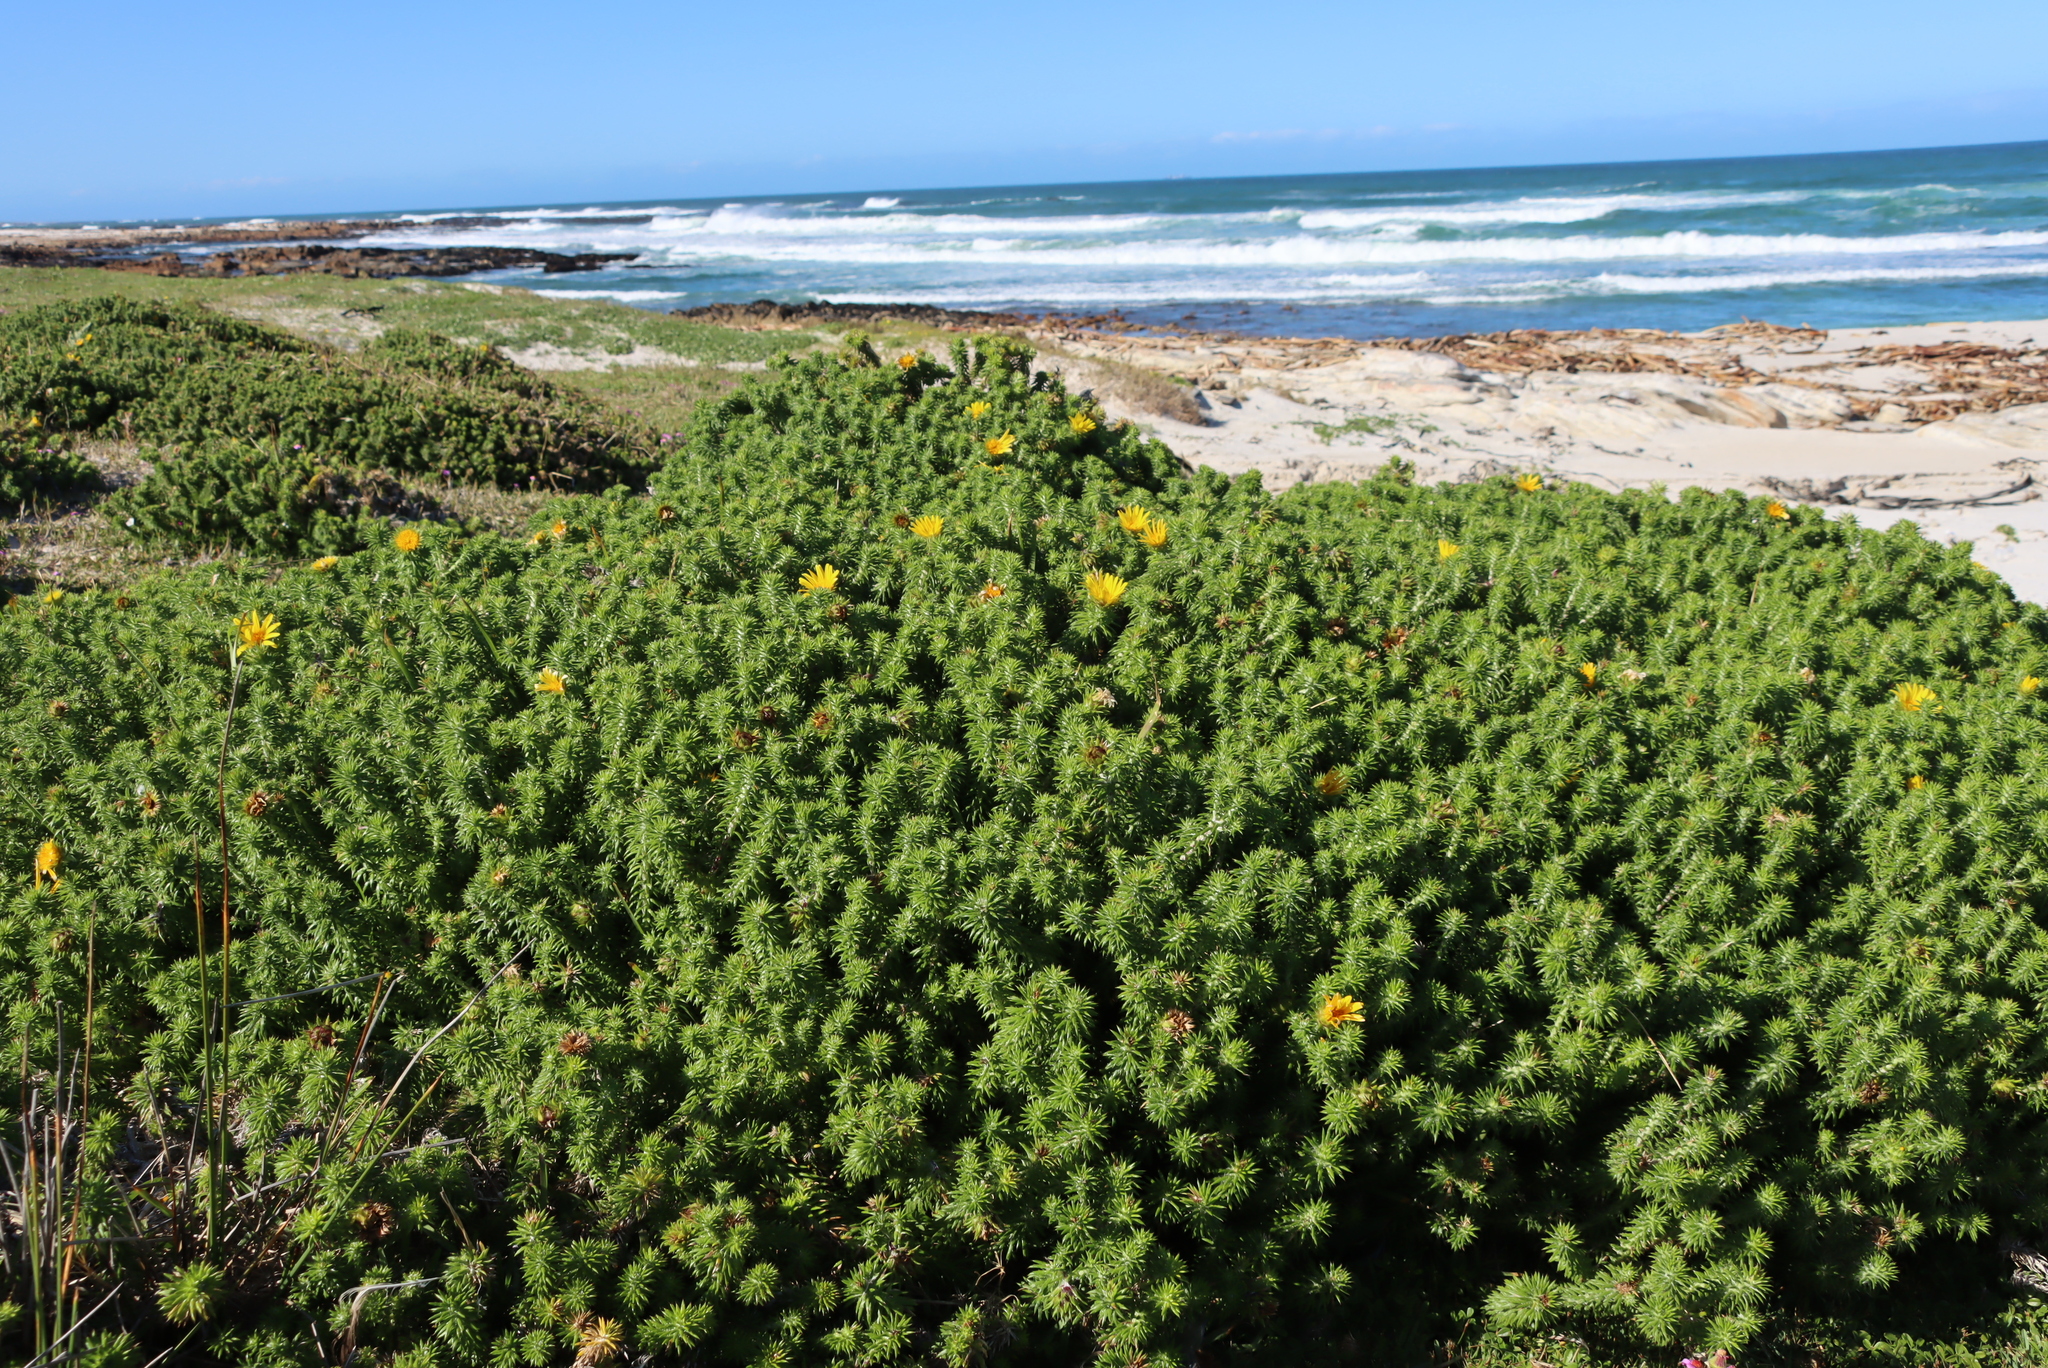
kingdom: Plantae
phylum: Tracheophyta
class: Magnoliopsida
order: Asterales
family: Asteraceae
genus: Cullumia
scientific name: Cullumia squarrosa
